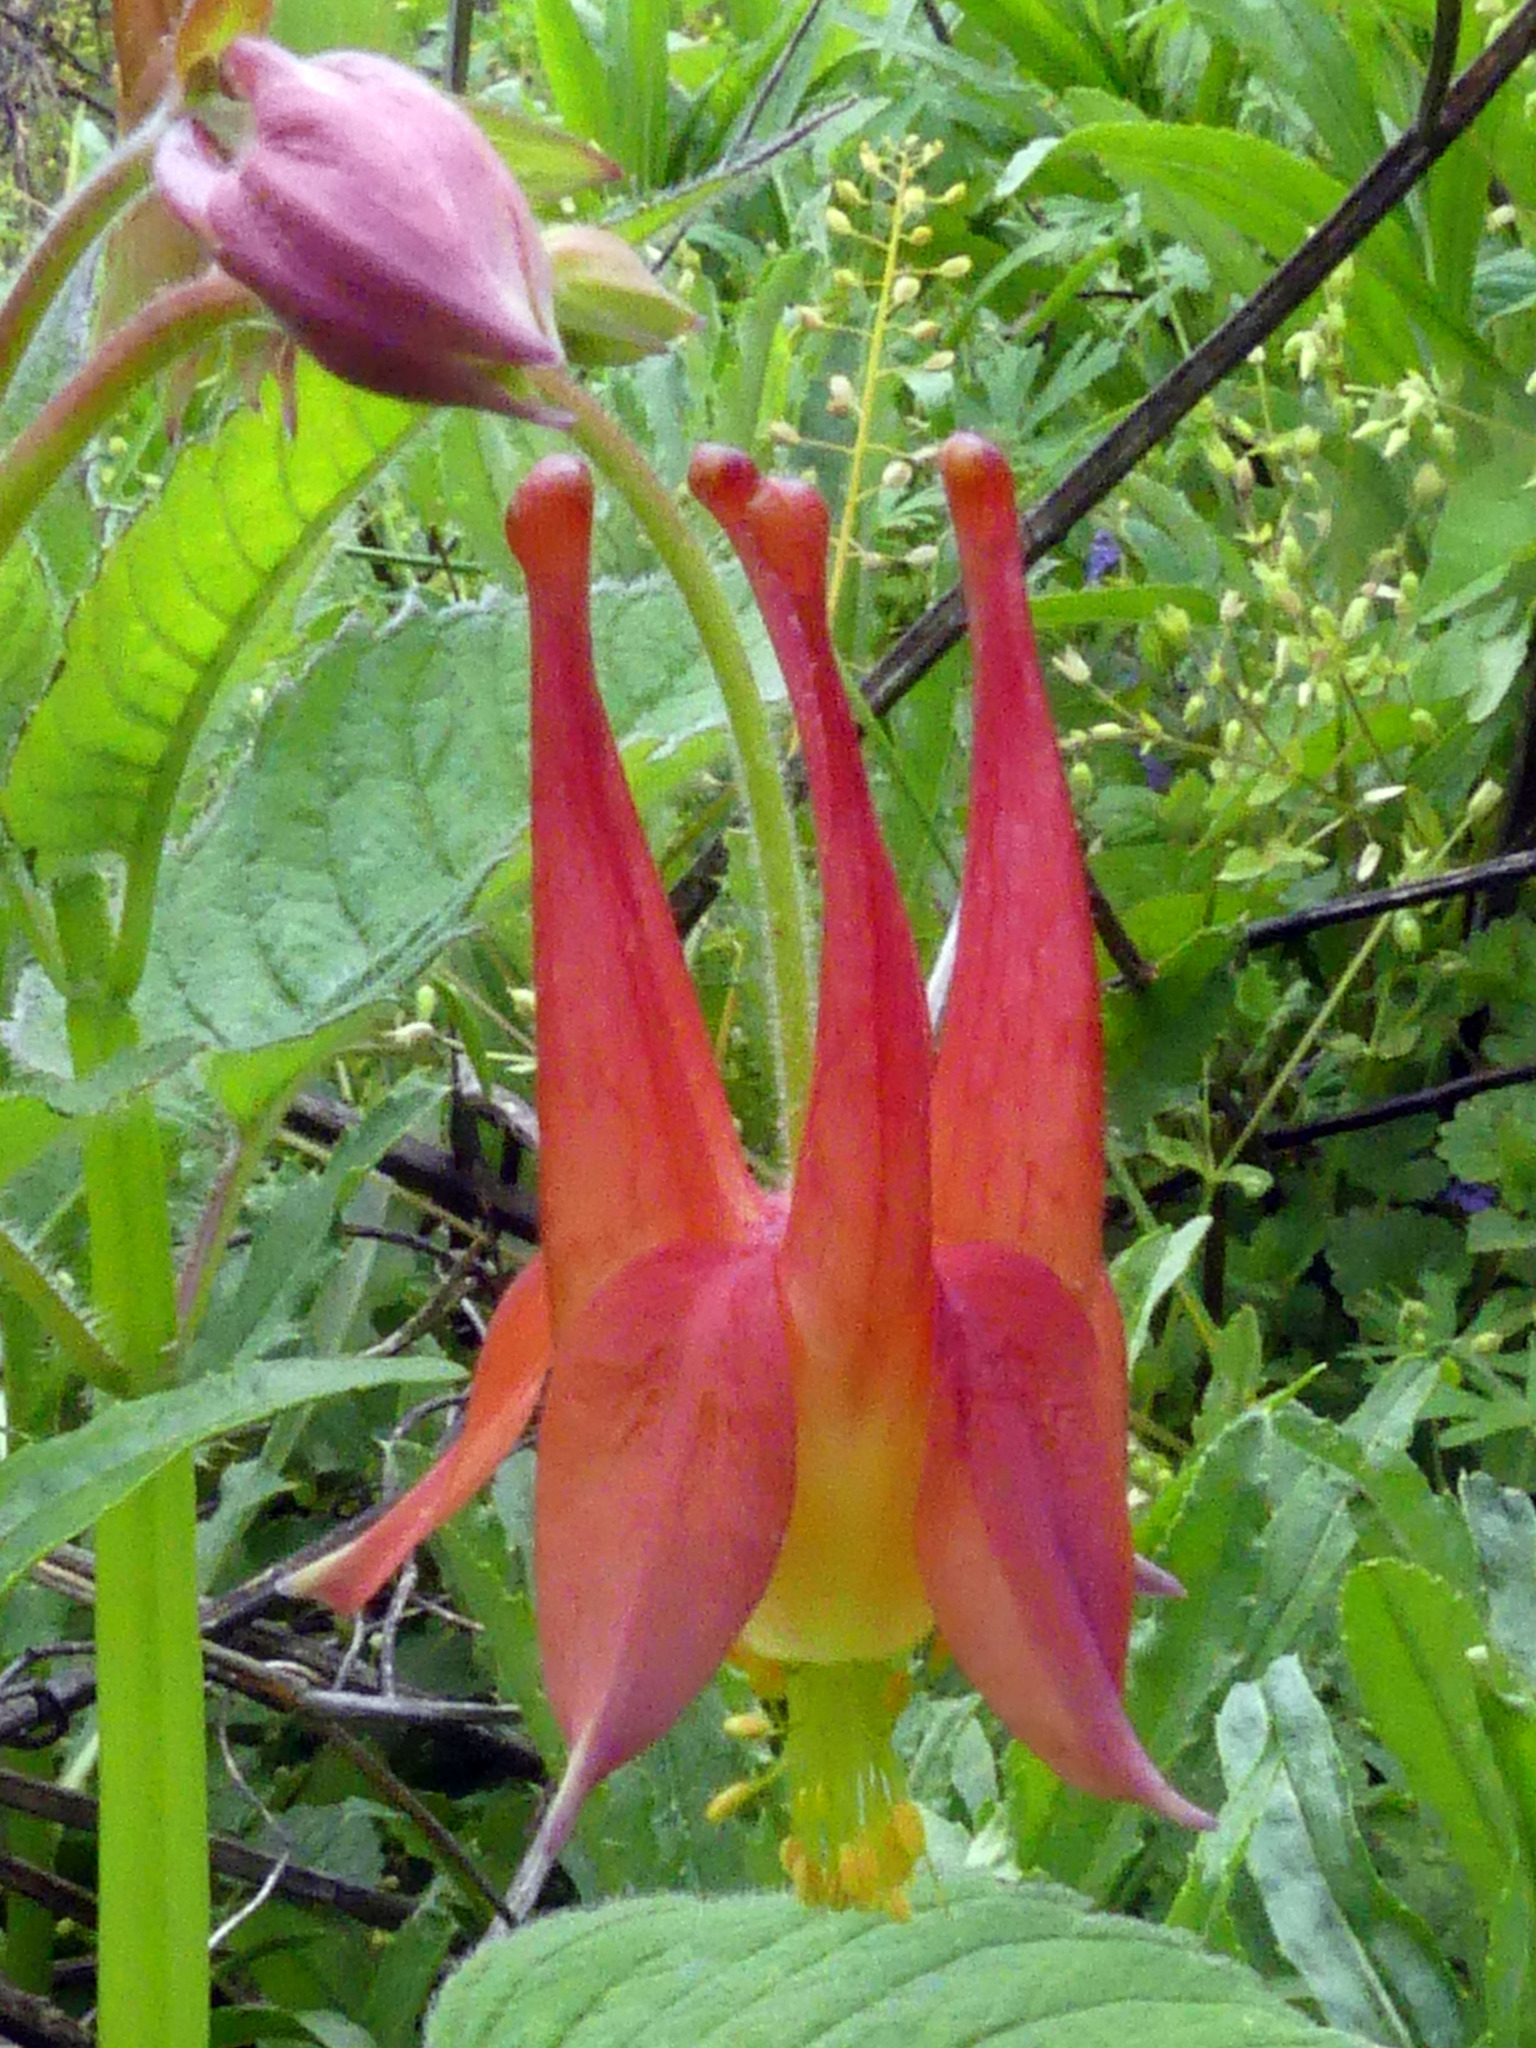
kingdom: Plantae
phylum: Tracheophyta
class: Magnoliopsida
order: Ranunculales
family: Ranunculaceae
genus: Aquilegia
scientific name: Aquilegia canadensis
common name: American columbine
